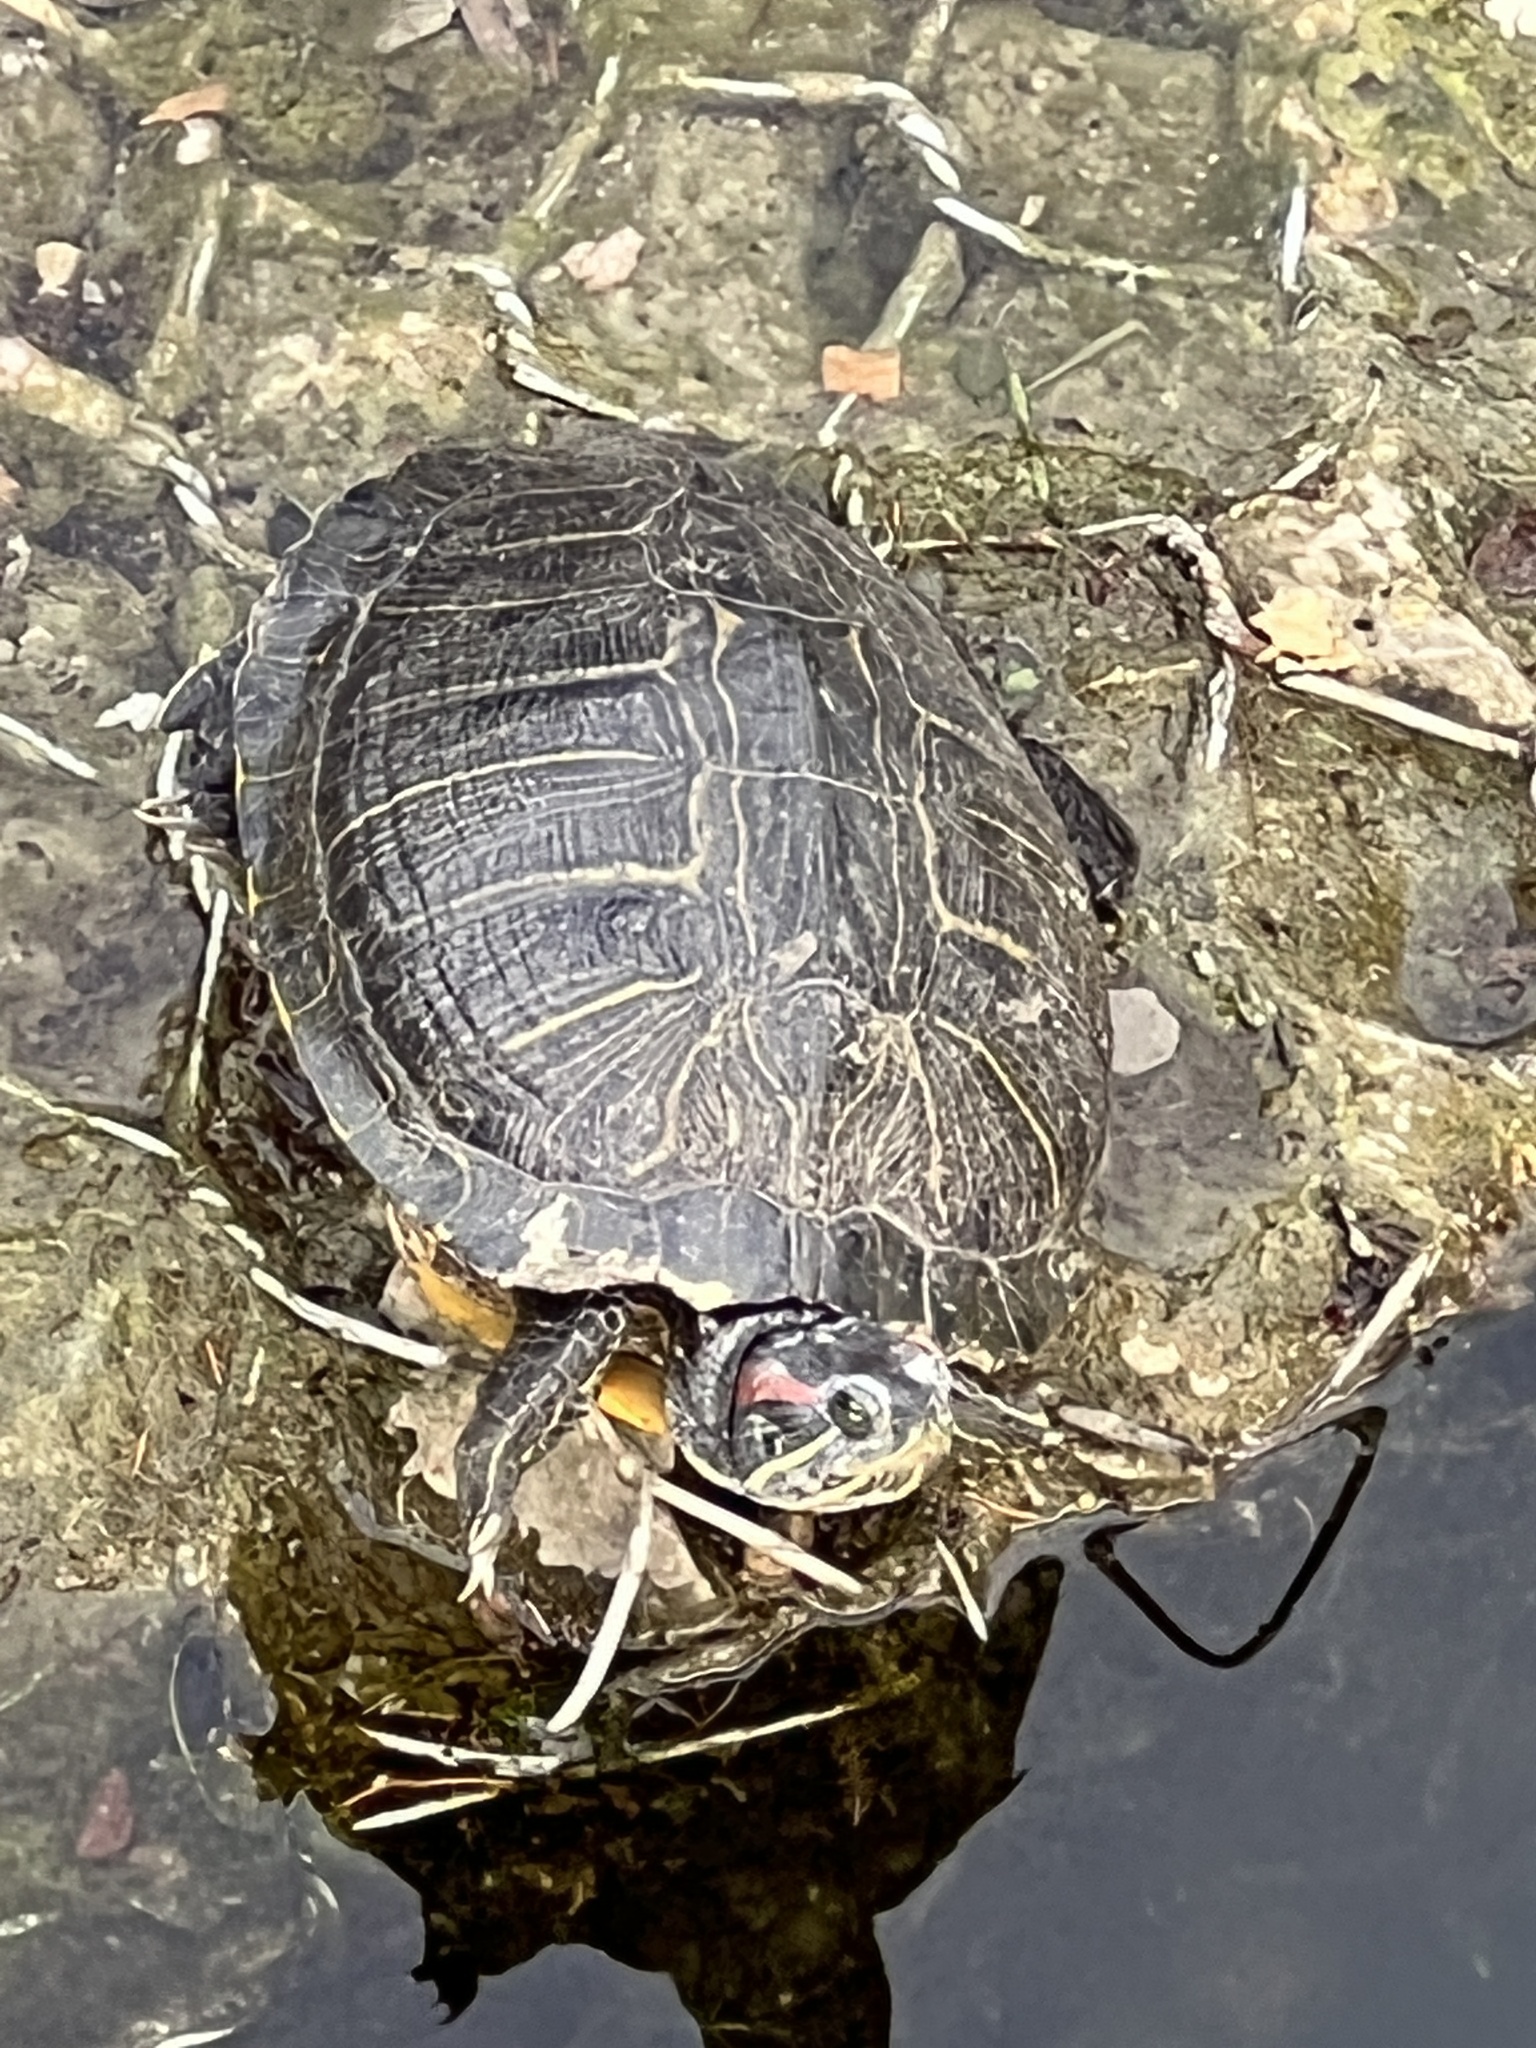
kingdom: Animalia
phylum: Chordata
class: Testudines
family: Emydidae
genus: Trachemys
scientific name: Trachemys scripta
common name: Slider
